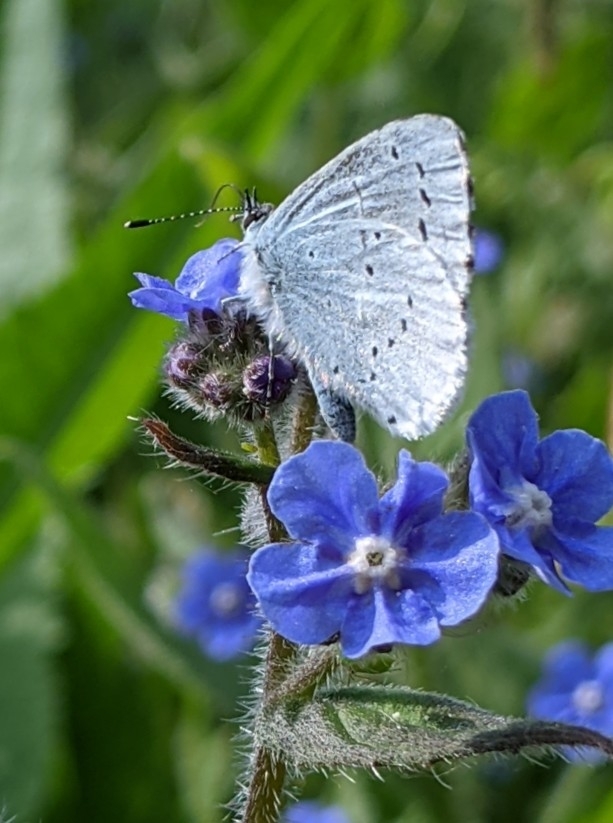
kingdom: Animalia
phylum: Arthropoda
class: Insecta
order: Lepidoptera
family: Lycaenidae
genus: Celastrina
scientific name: Celastrina argiolus
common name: Holly blue
